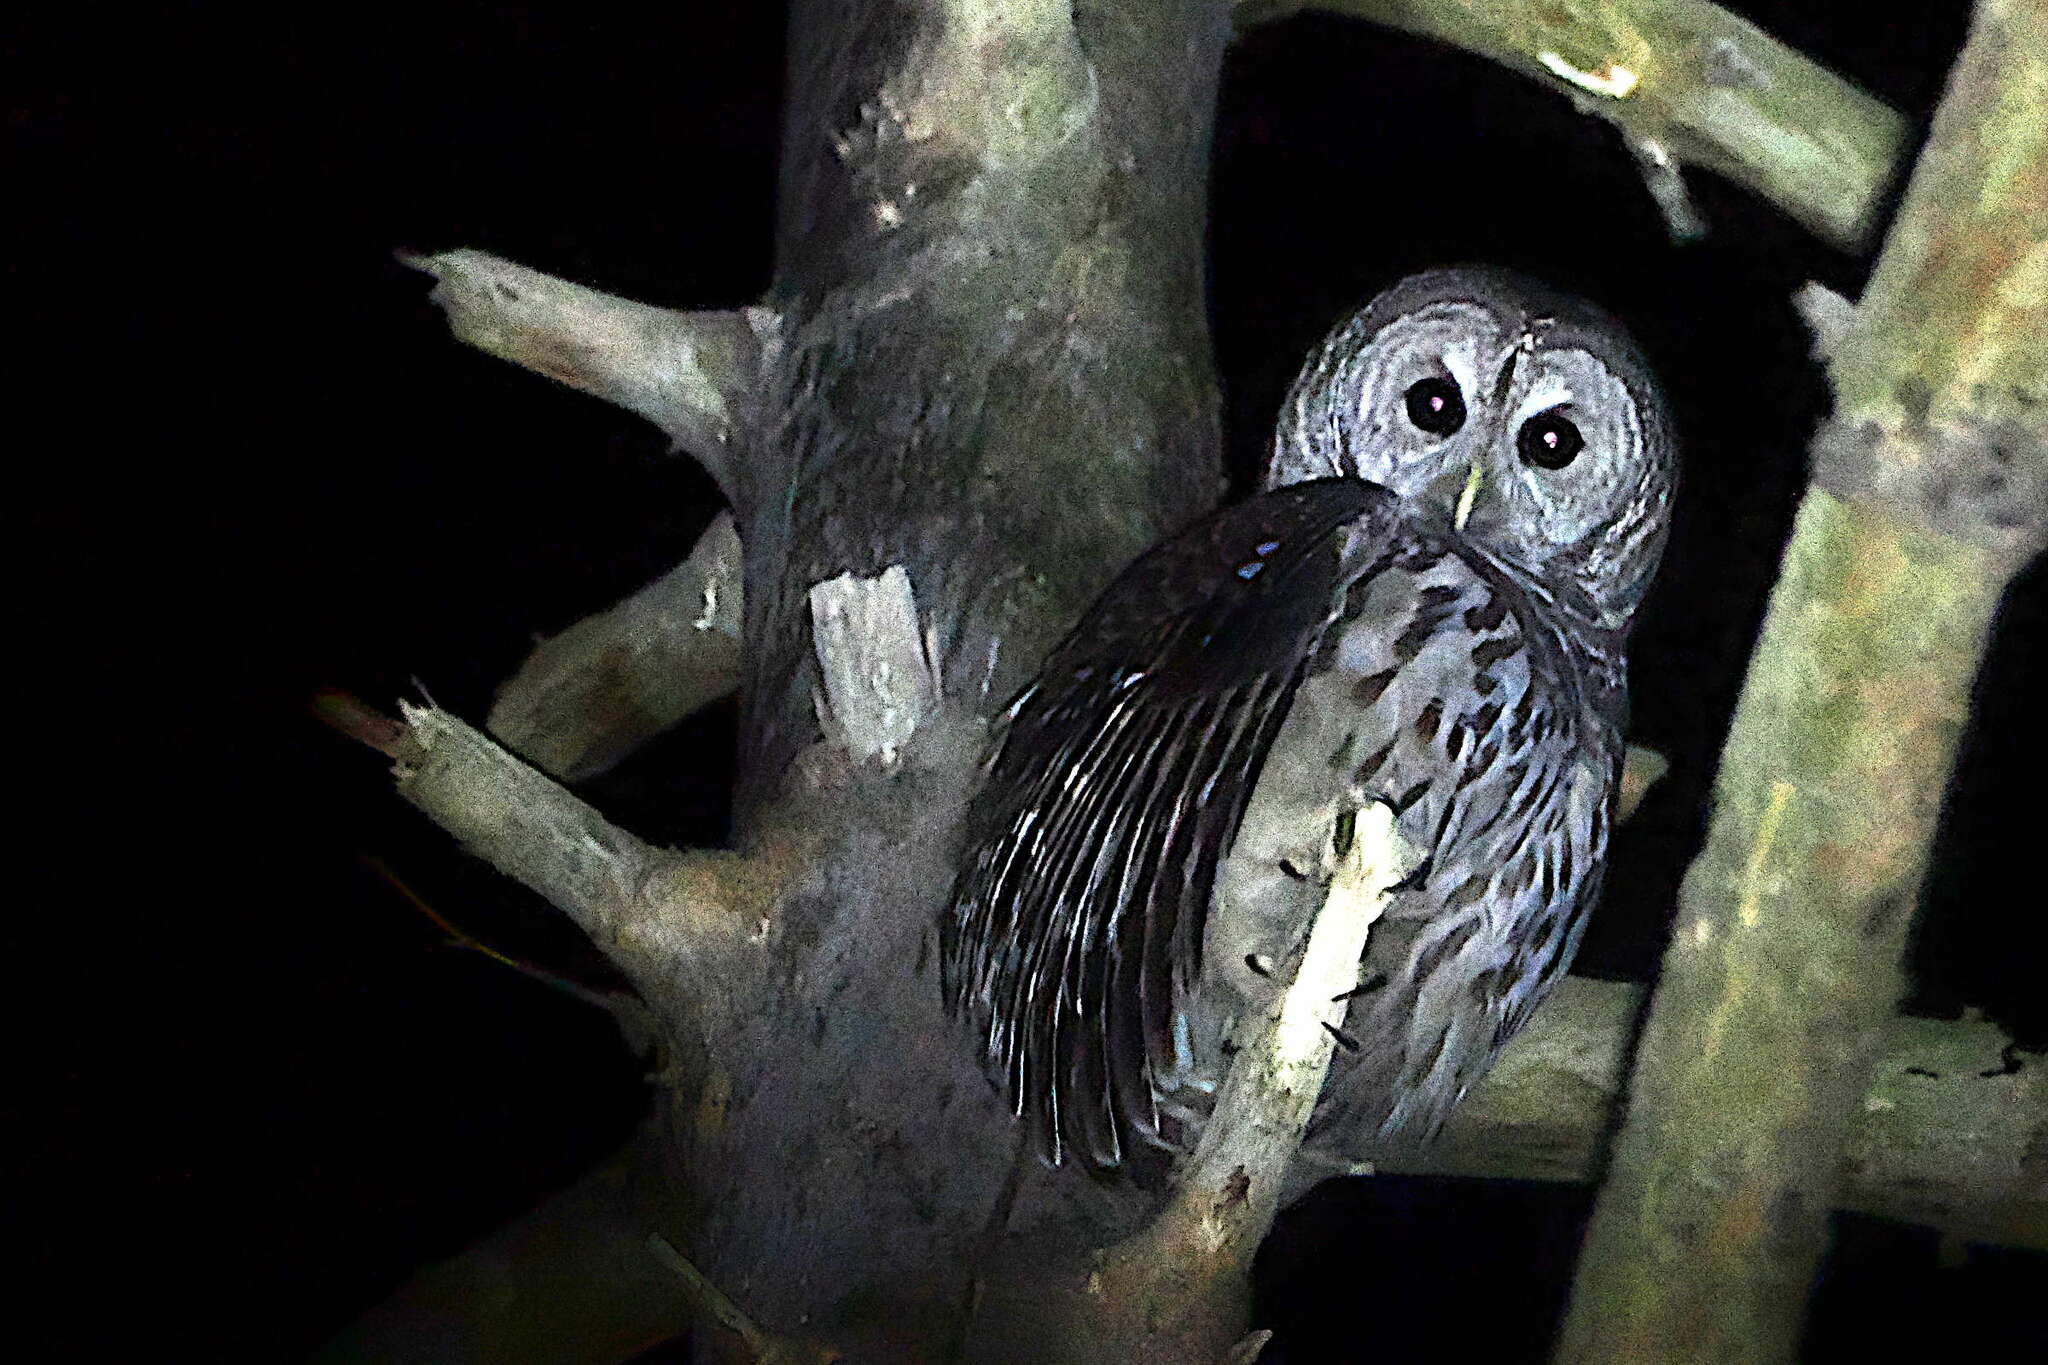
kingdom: Animalia
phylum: Chordata
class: Aves
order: Strigiformes
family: Strigidae
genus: Strix
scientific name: Strix varia
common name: Barred owl
